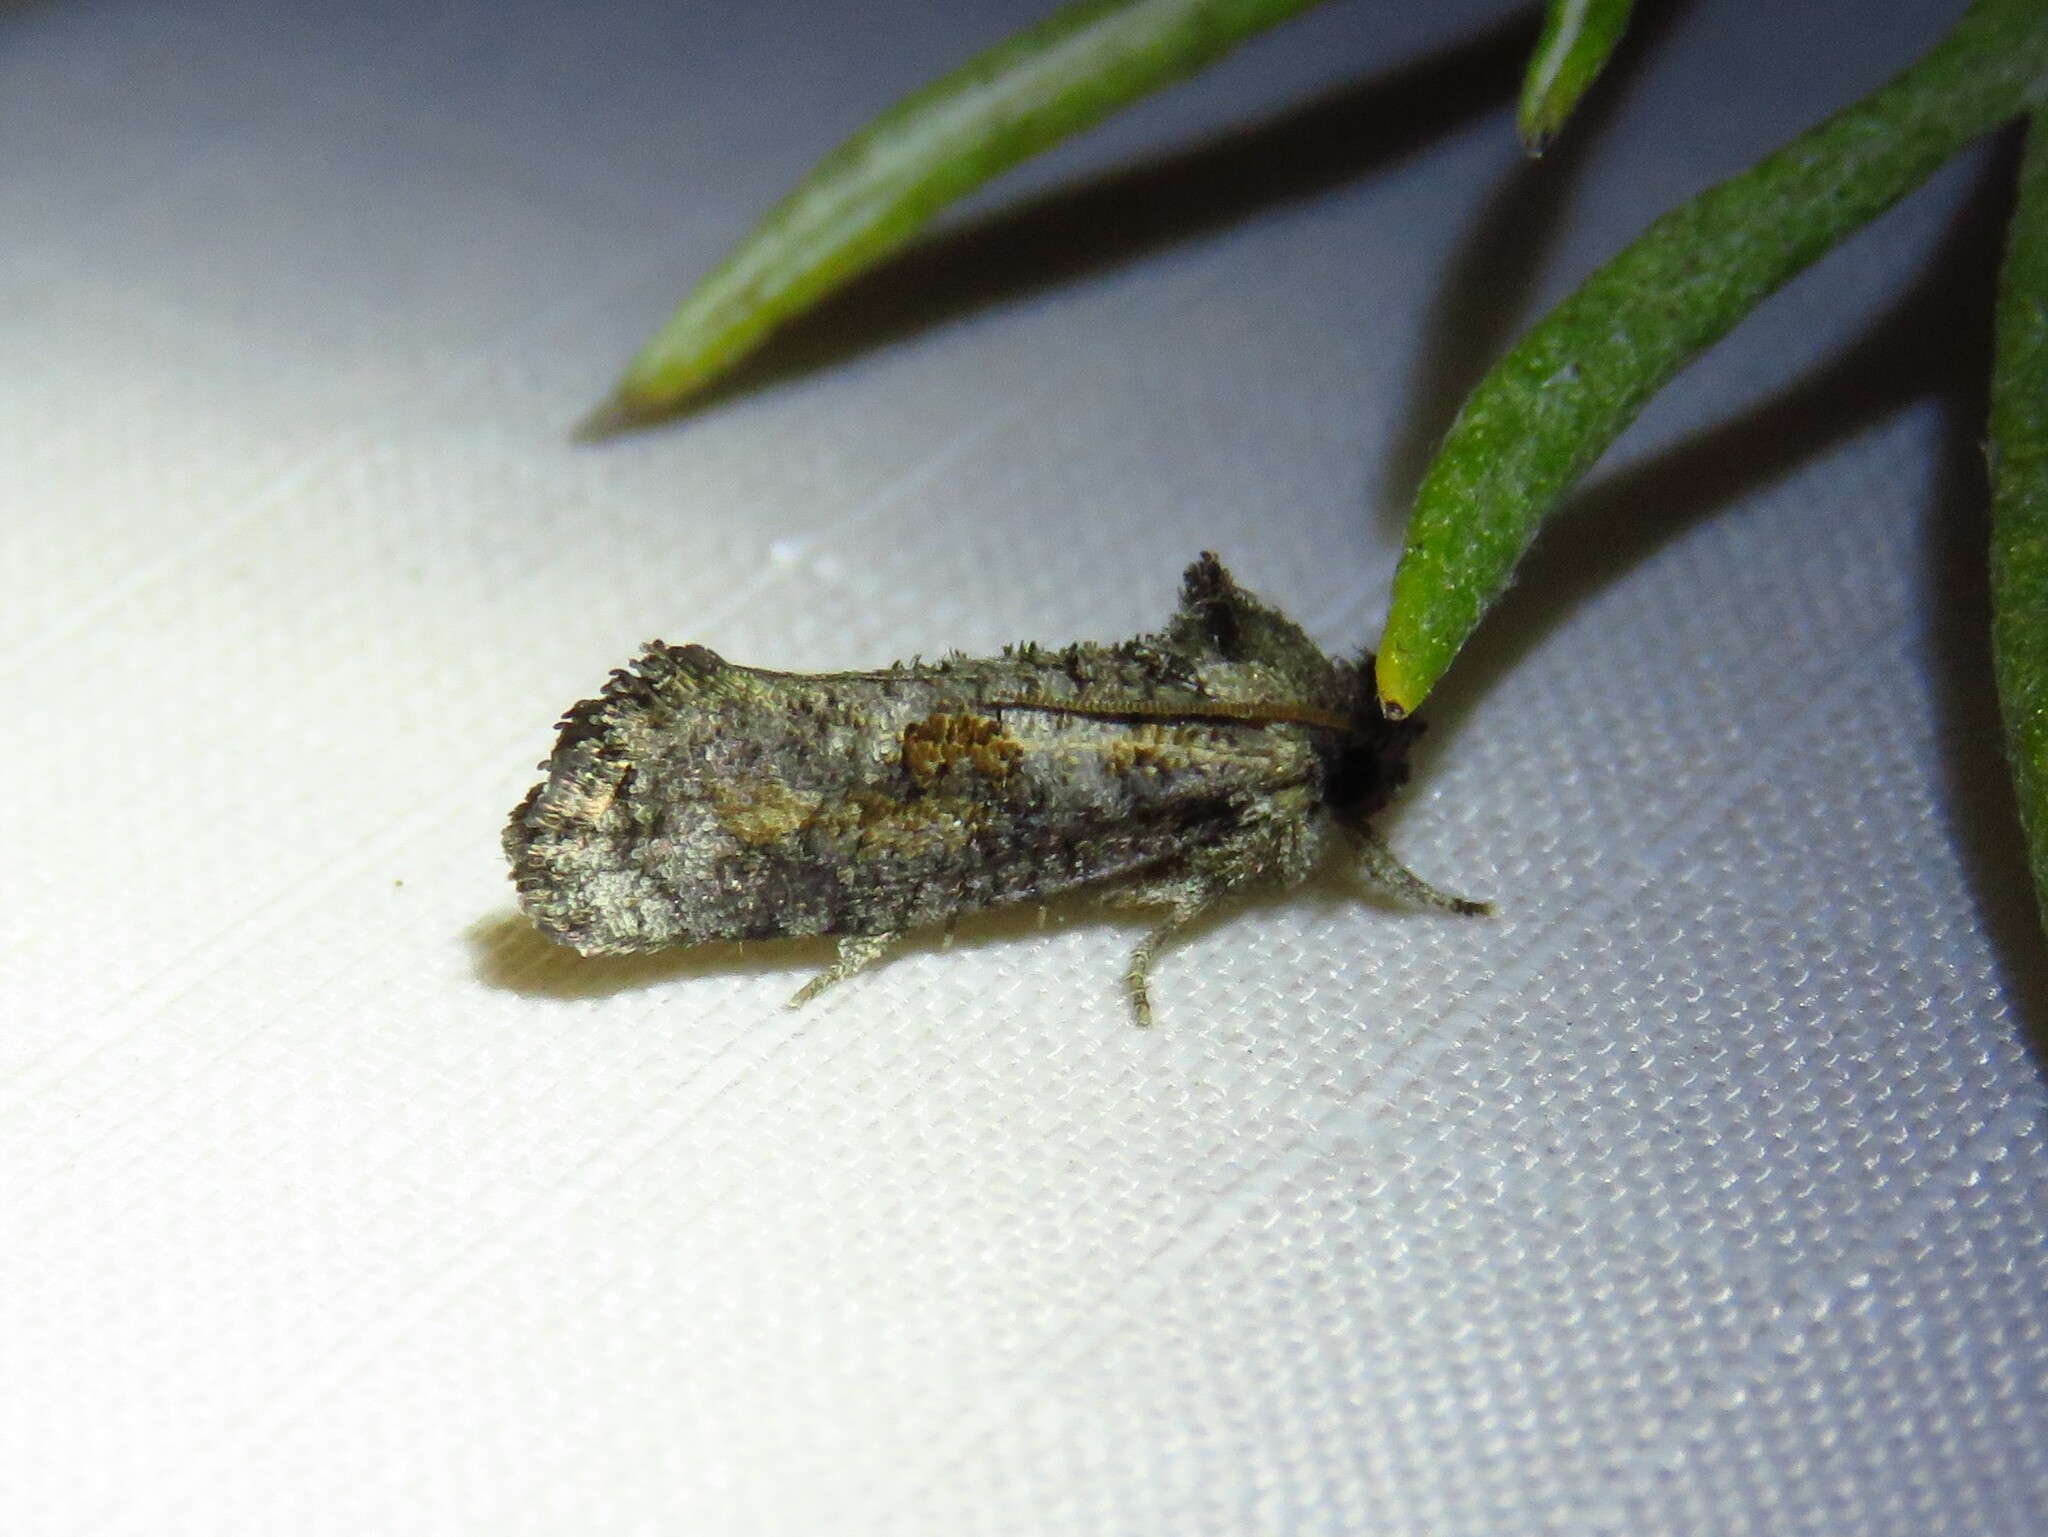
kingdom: Animalia
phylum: Arthropoda
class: Insecta
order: Lepidoptera
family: Tineidae
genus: Acrolophus
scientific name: Acrolophus piger
